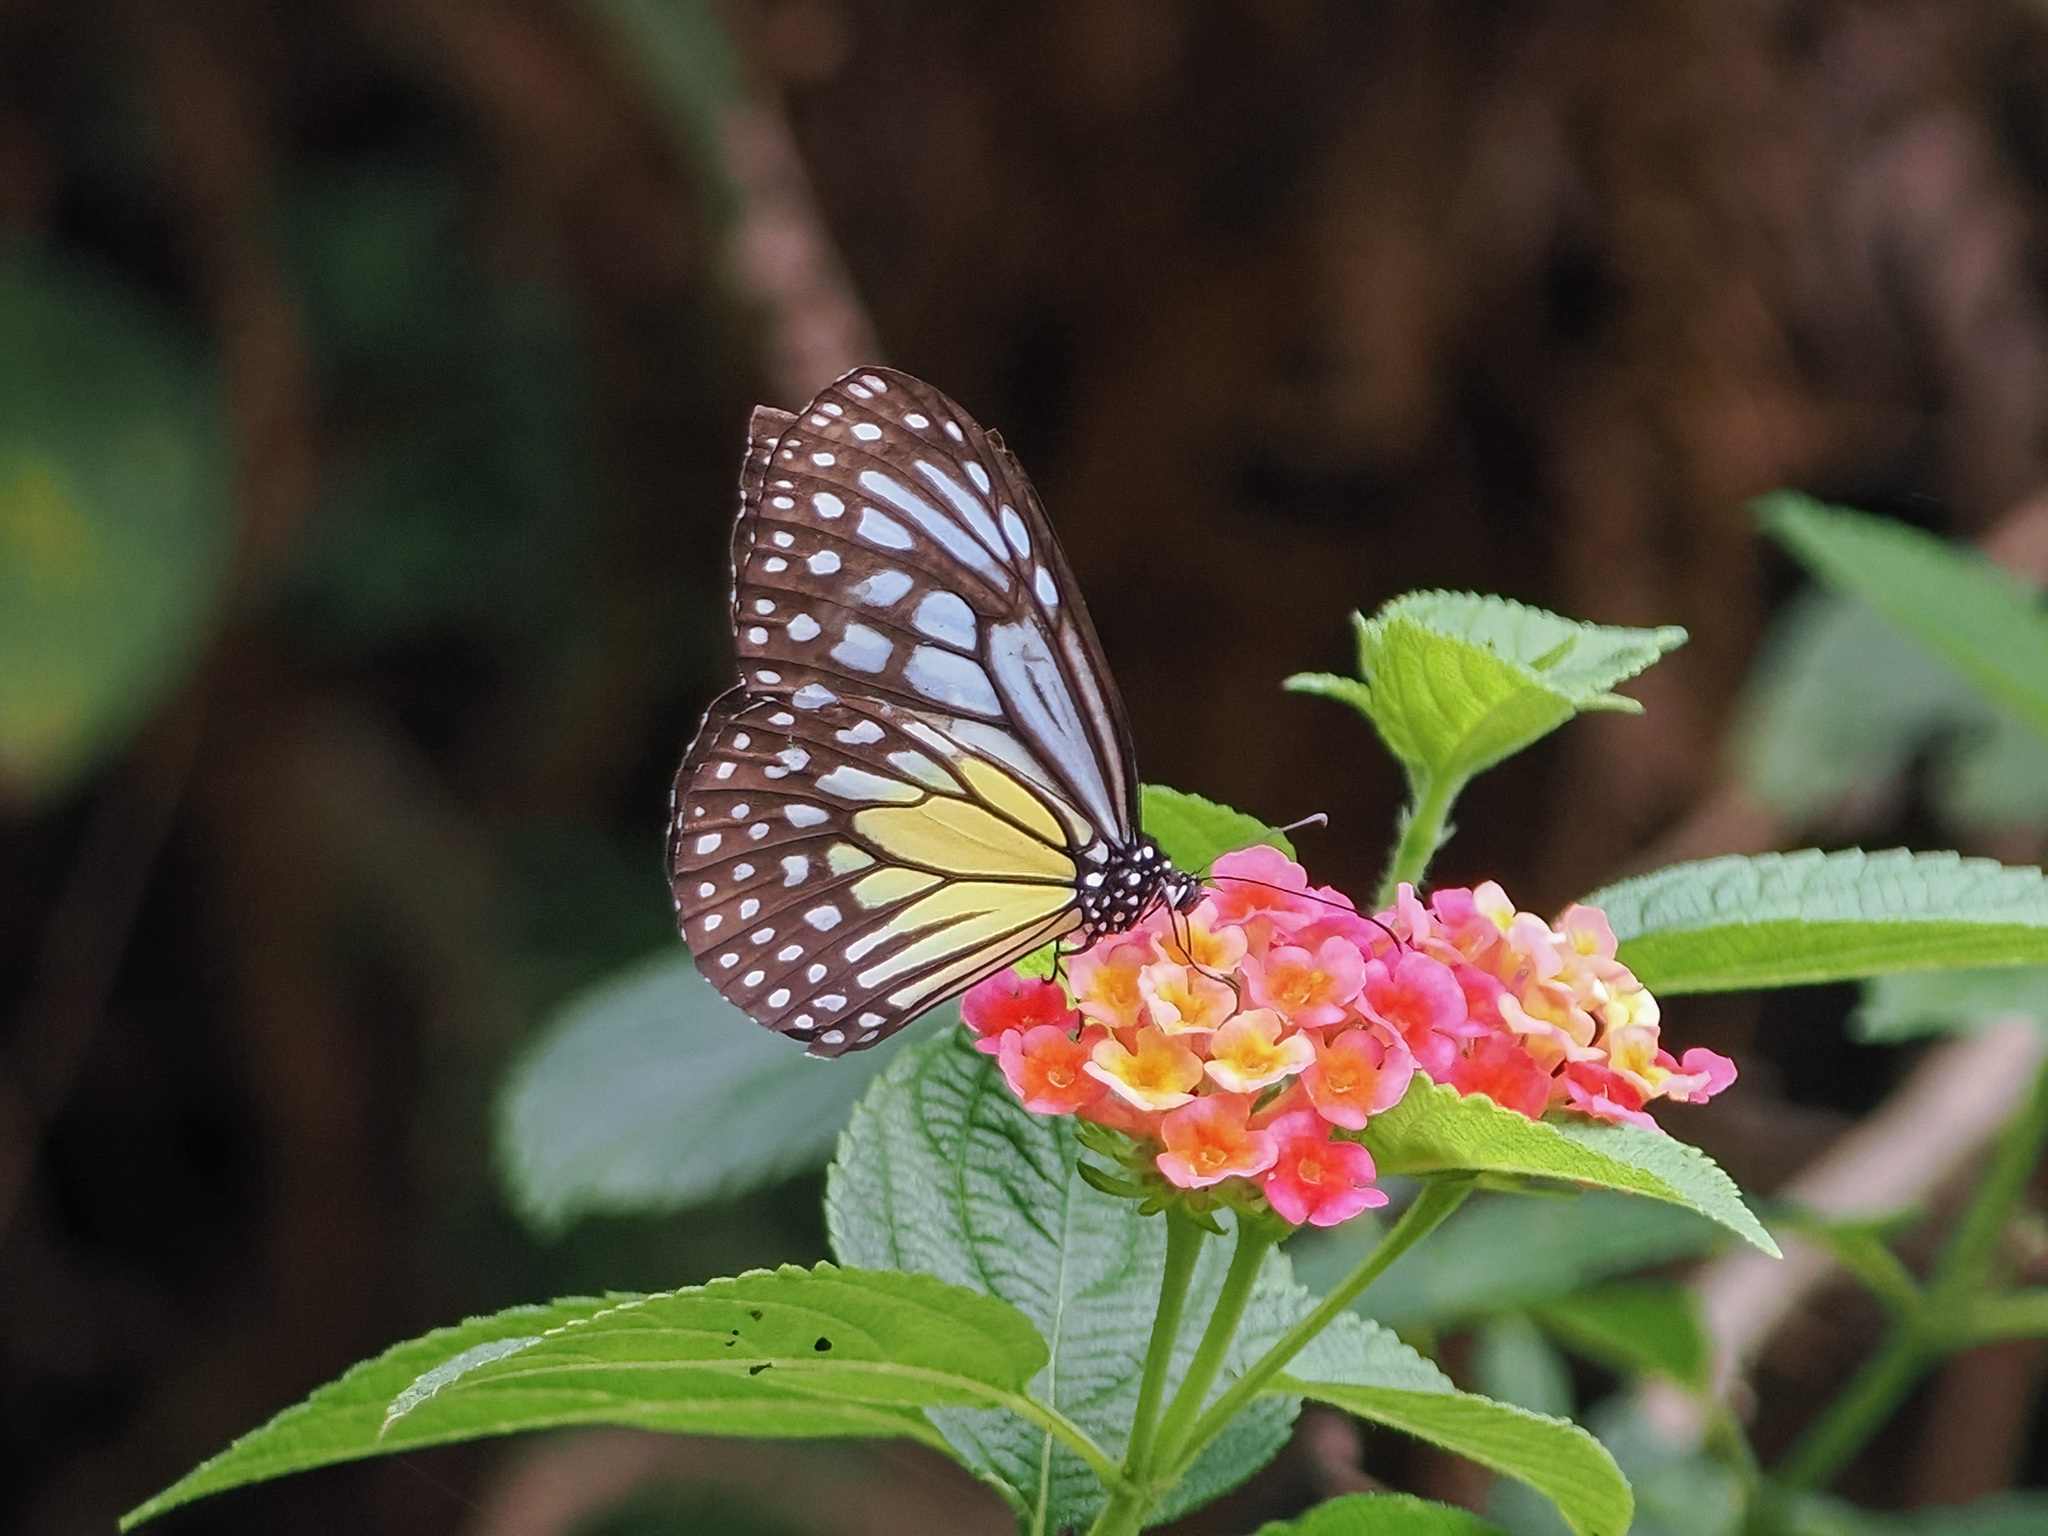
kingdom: Animalia
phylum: Arthropoda
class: Insecta
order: Lepidoptera
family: Nymphalidae
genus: Parantica
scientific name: Parantica aspasia
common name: Yellow glassy tiger
